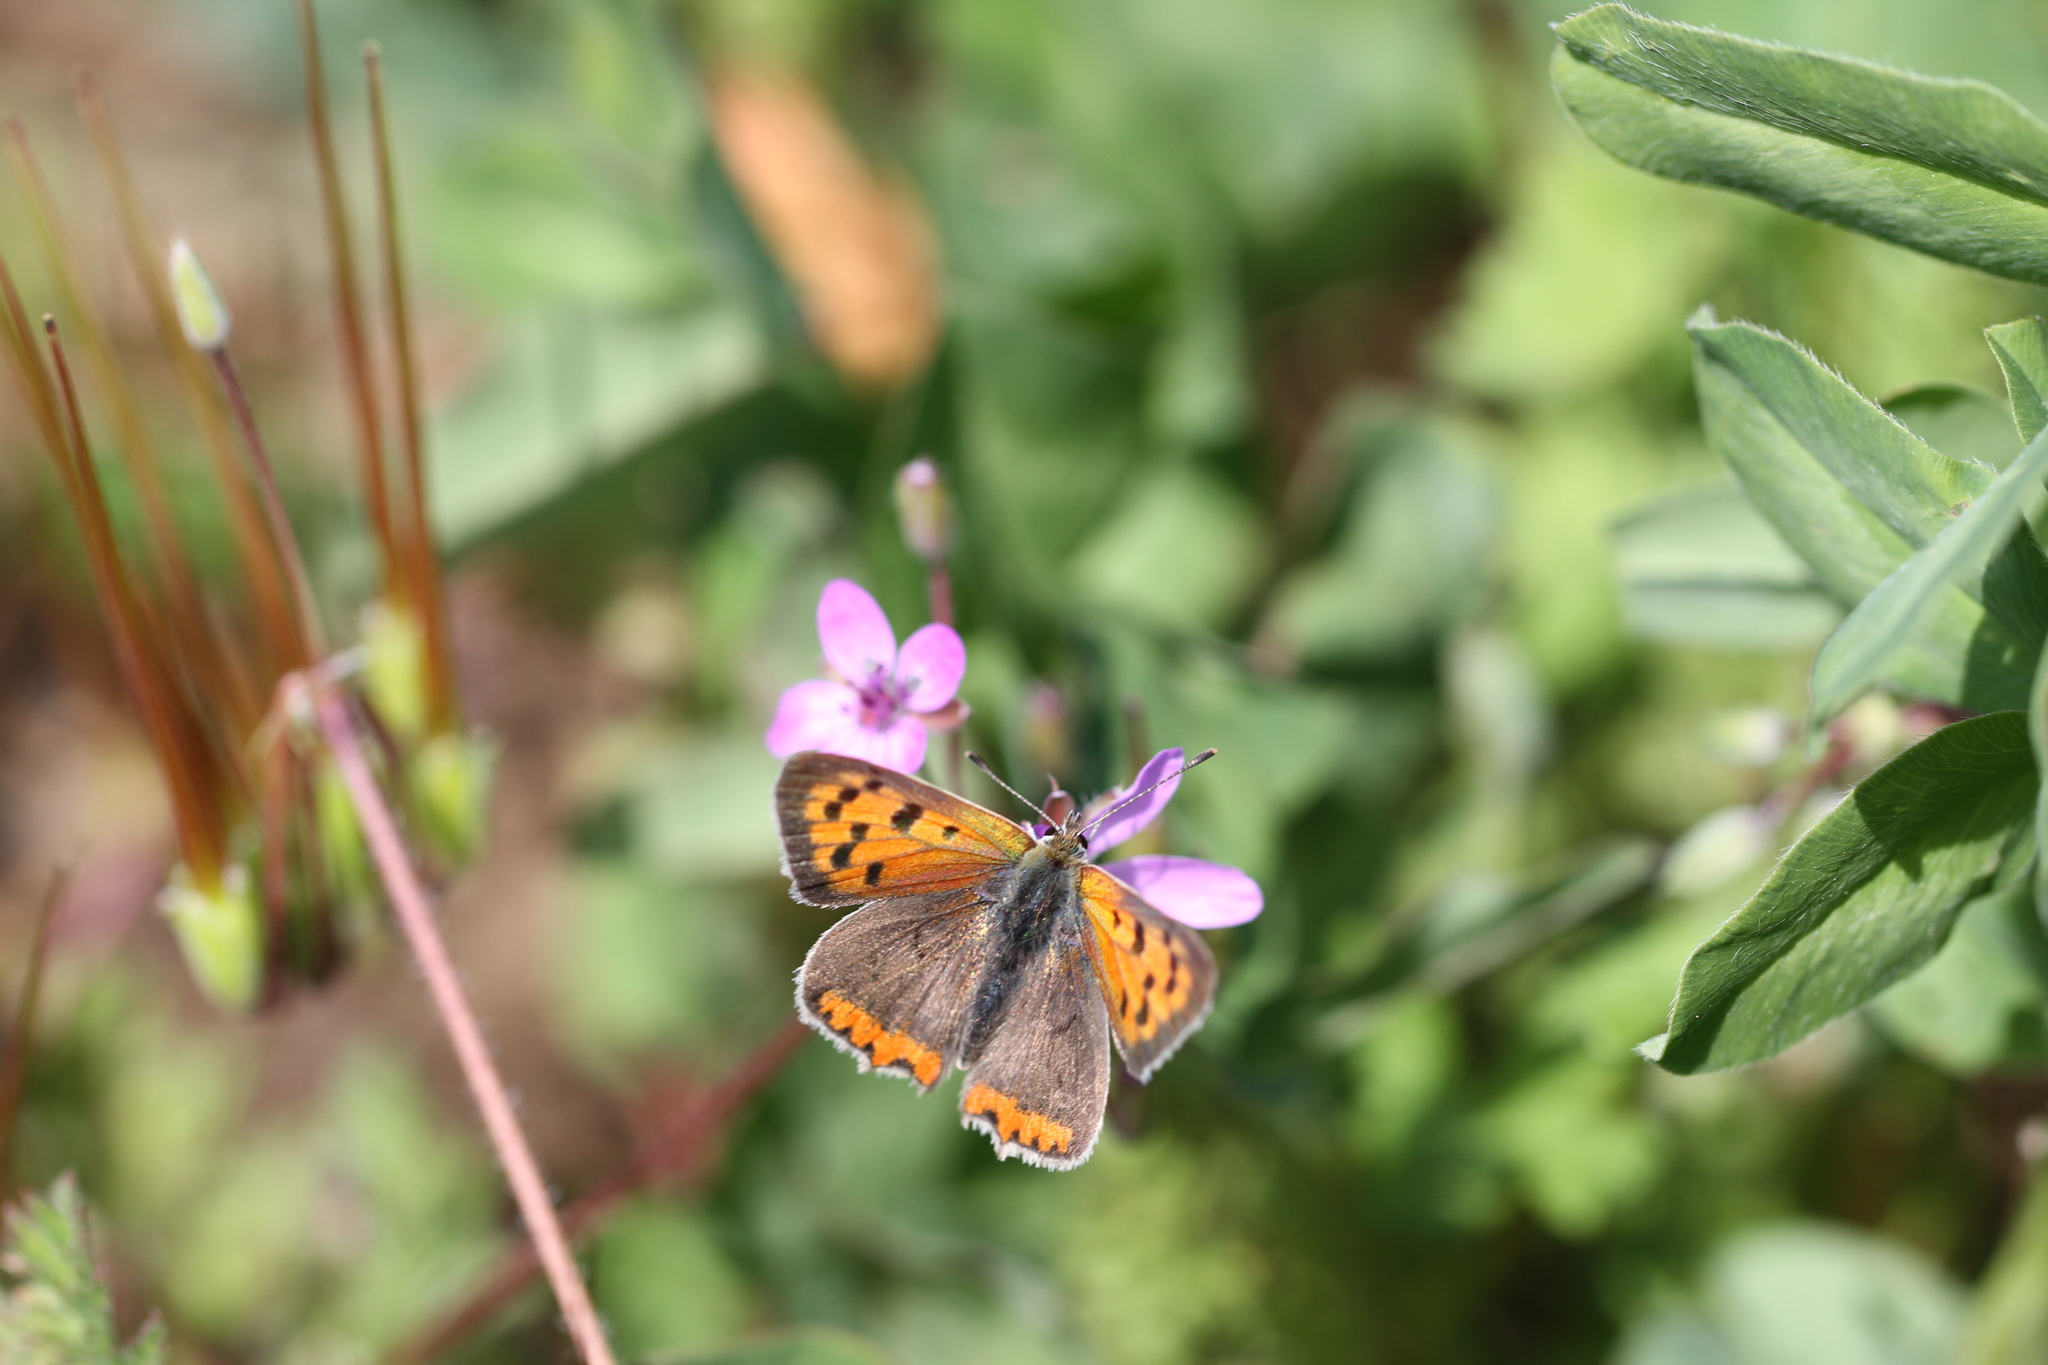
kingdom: Animalia
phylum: Arthropoda
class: Insecta
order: Lepidoptera
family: Lycaenidae
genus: Lycaena
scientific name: Lycaena phlaeas
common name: Small copper
